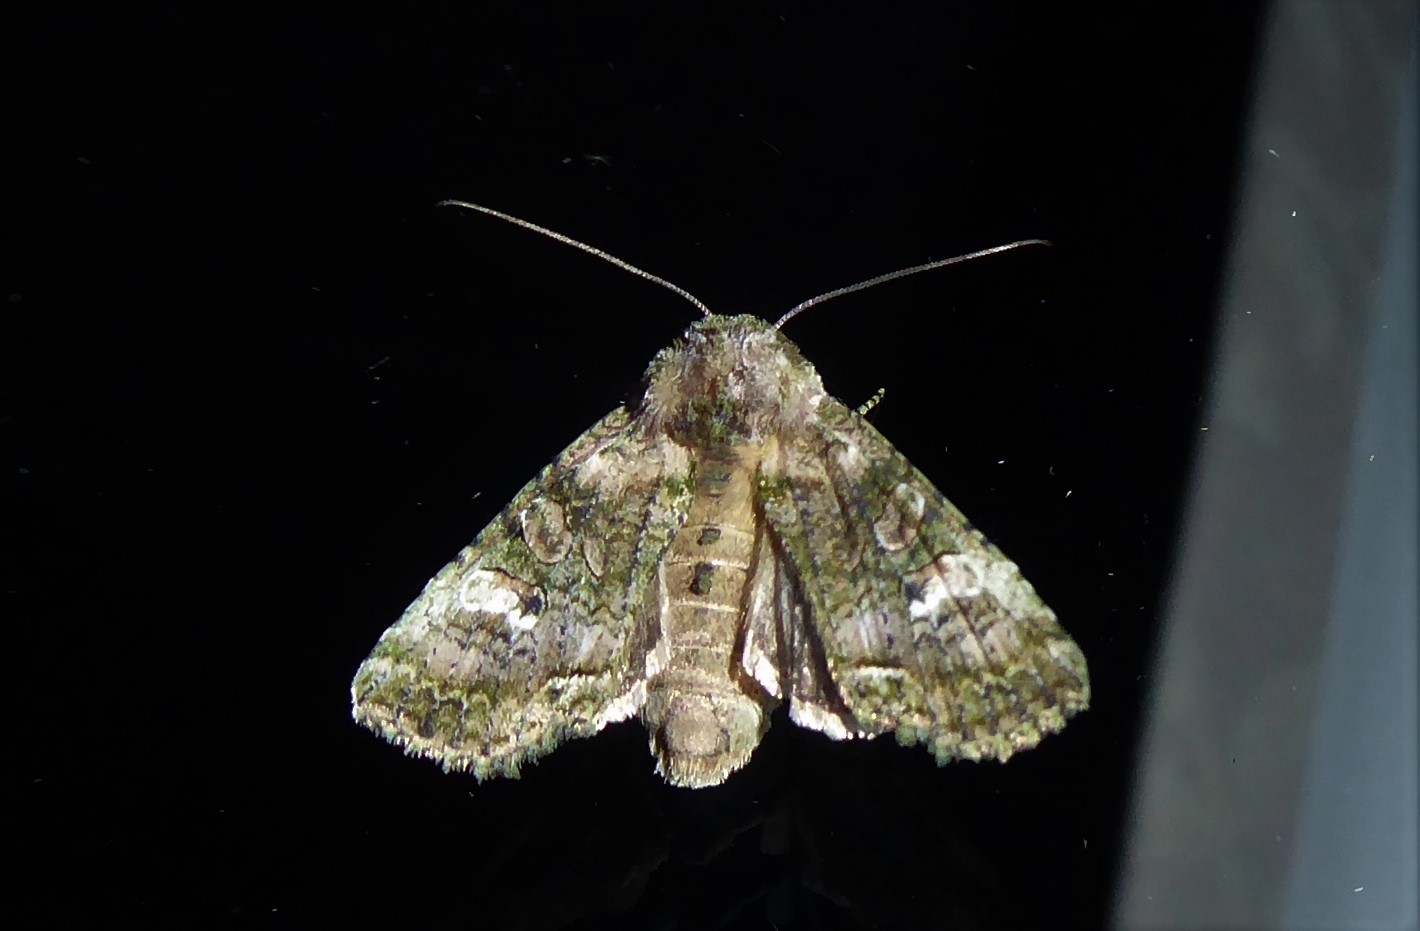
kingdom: Animalia
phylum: Arthropoda
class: Insecta
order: Lepidoptera
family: Noctuidae
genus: Meterana
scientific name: Meterana levis
